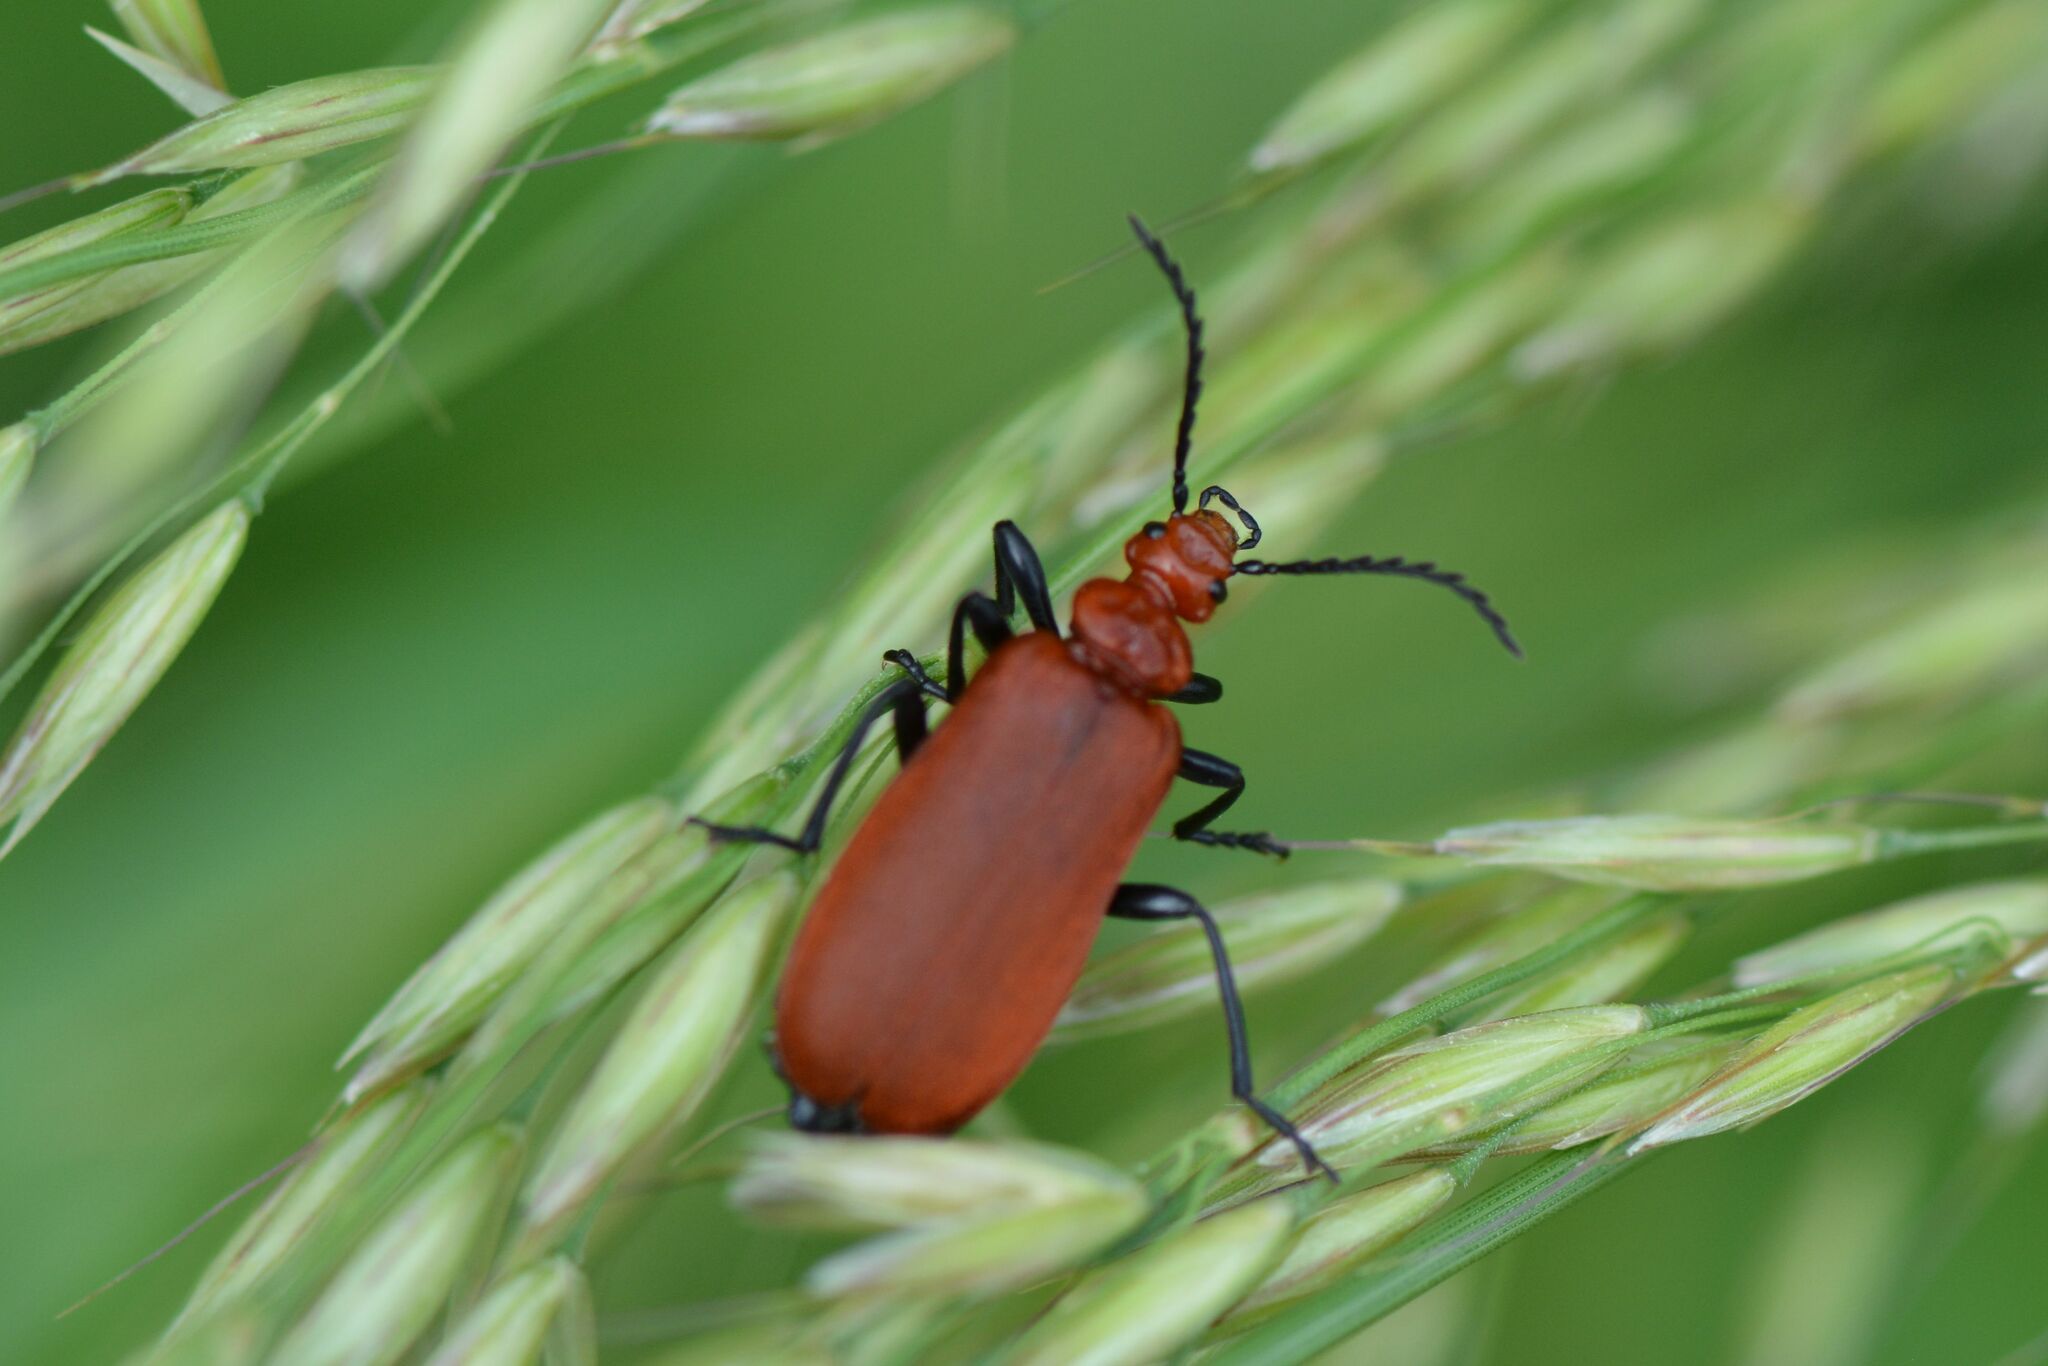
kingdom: Animalia
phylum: Arthropoda
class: Insecta
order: Coleoptera
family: Pyrochroidae
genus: Pyrochroa
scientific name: Pyrochroa serraticornis
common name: Red-headed cardinal beetle
